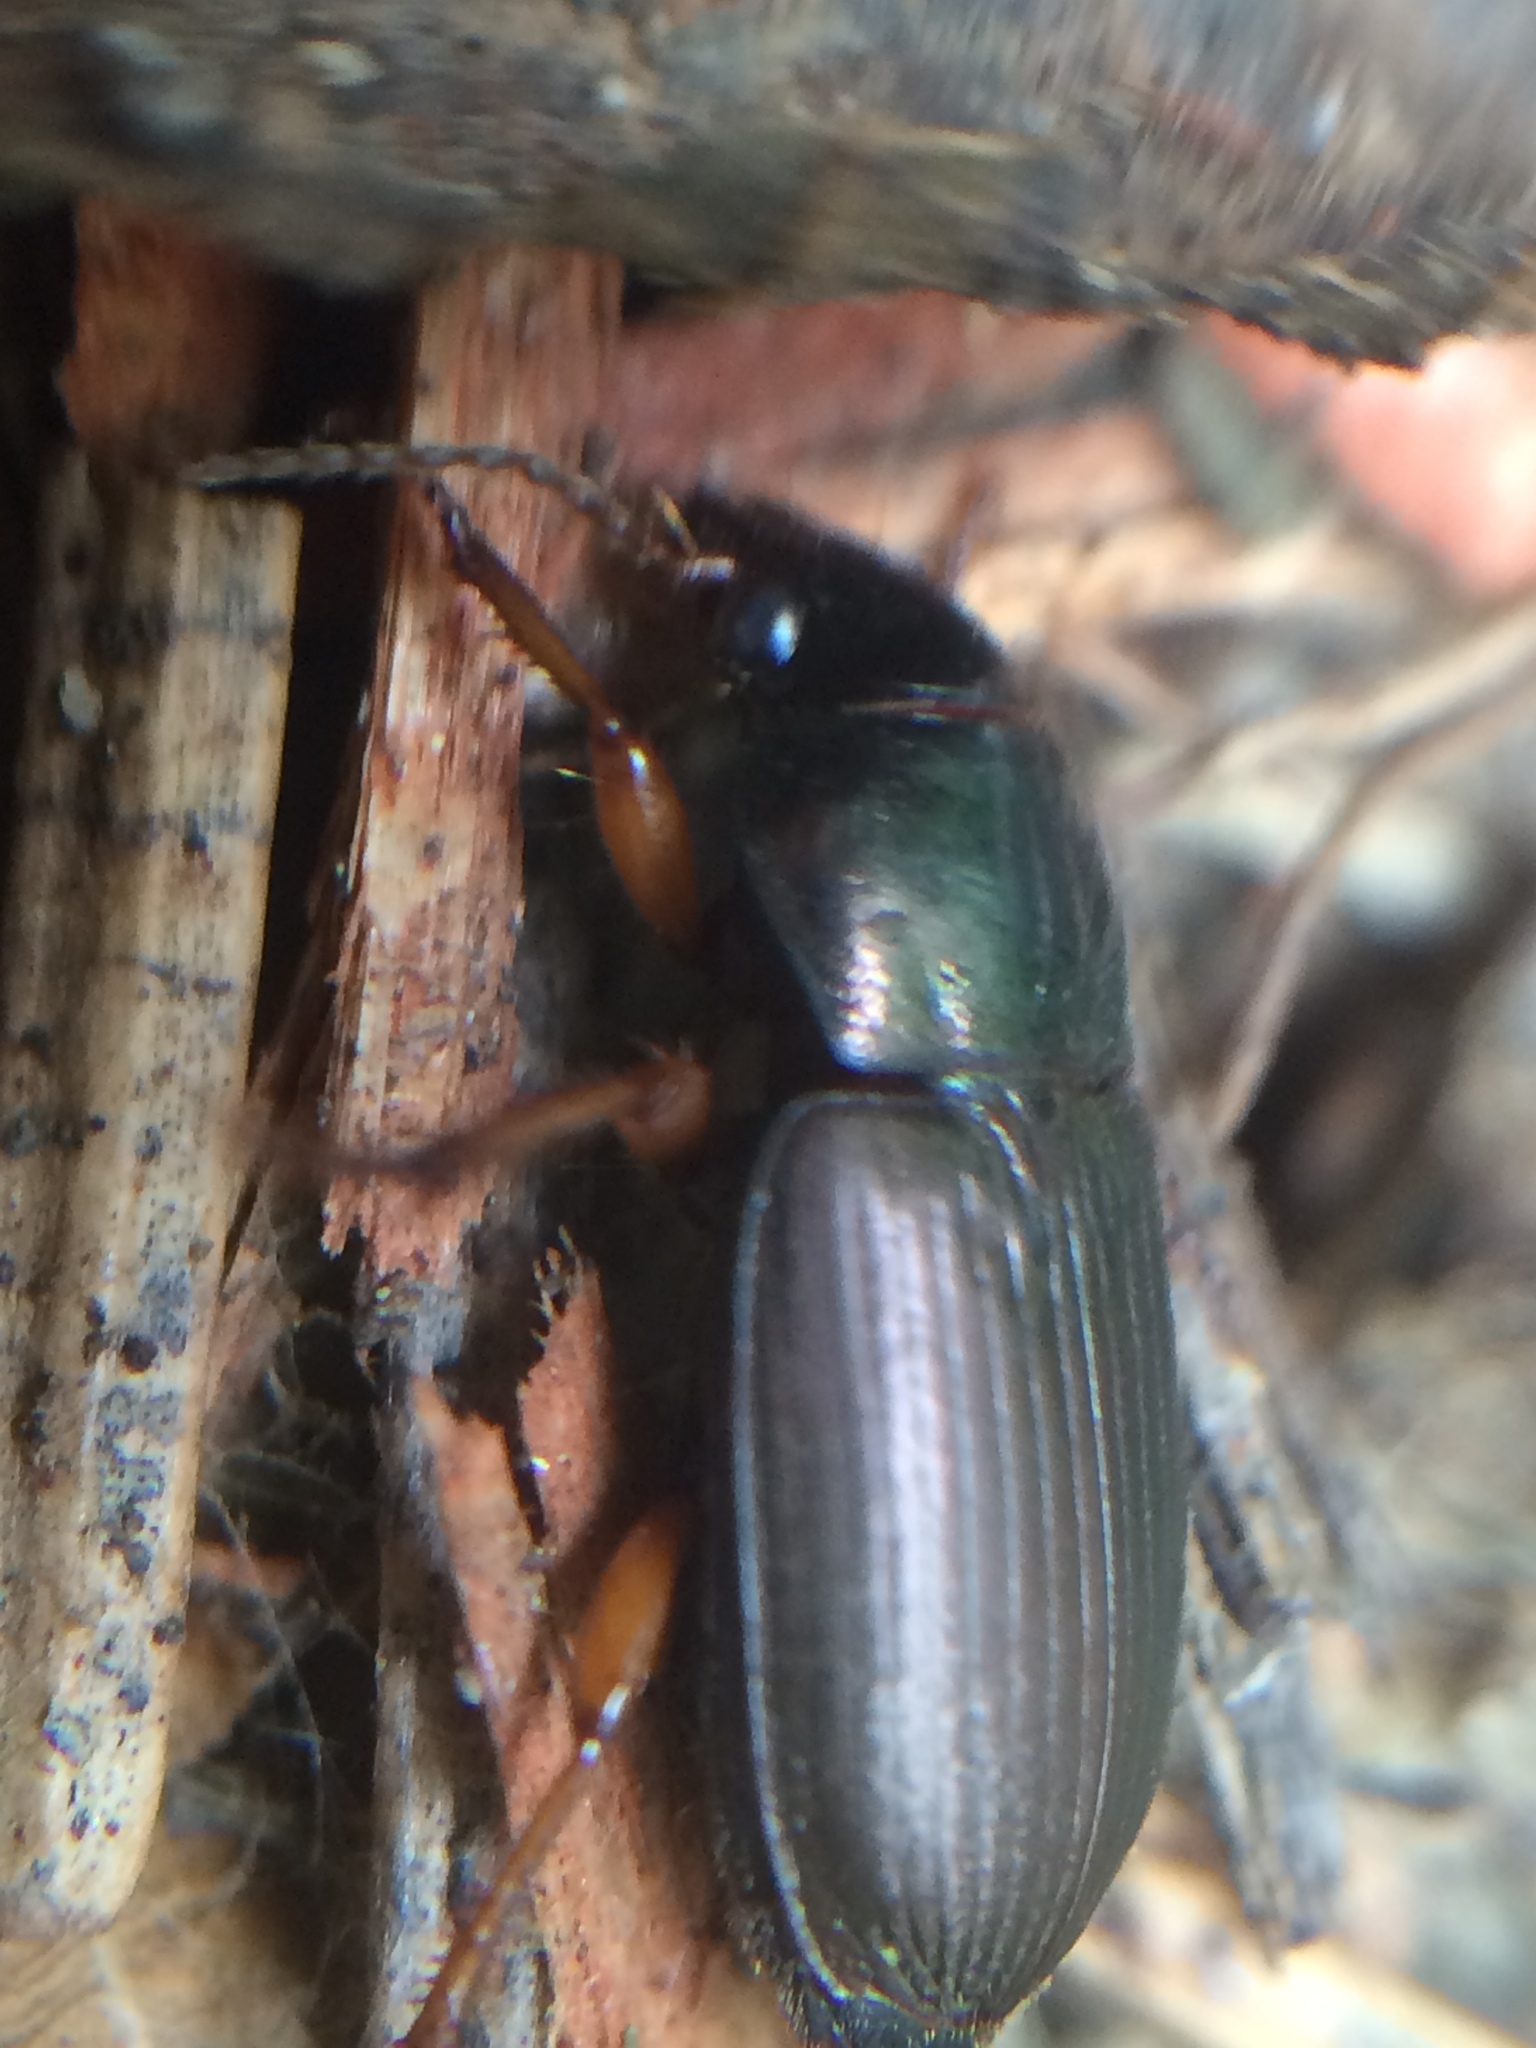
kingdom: Animalia
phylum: Arthropoda
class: Insecta
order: Coleoptera
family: Carabidae
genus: Harpalus
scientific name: Harpalus affinis
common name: Polychrome harp ground beetle
